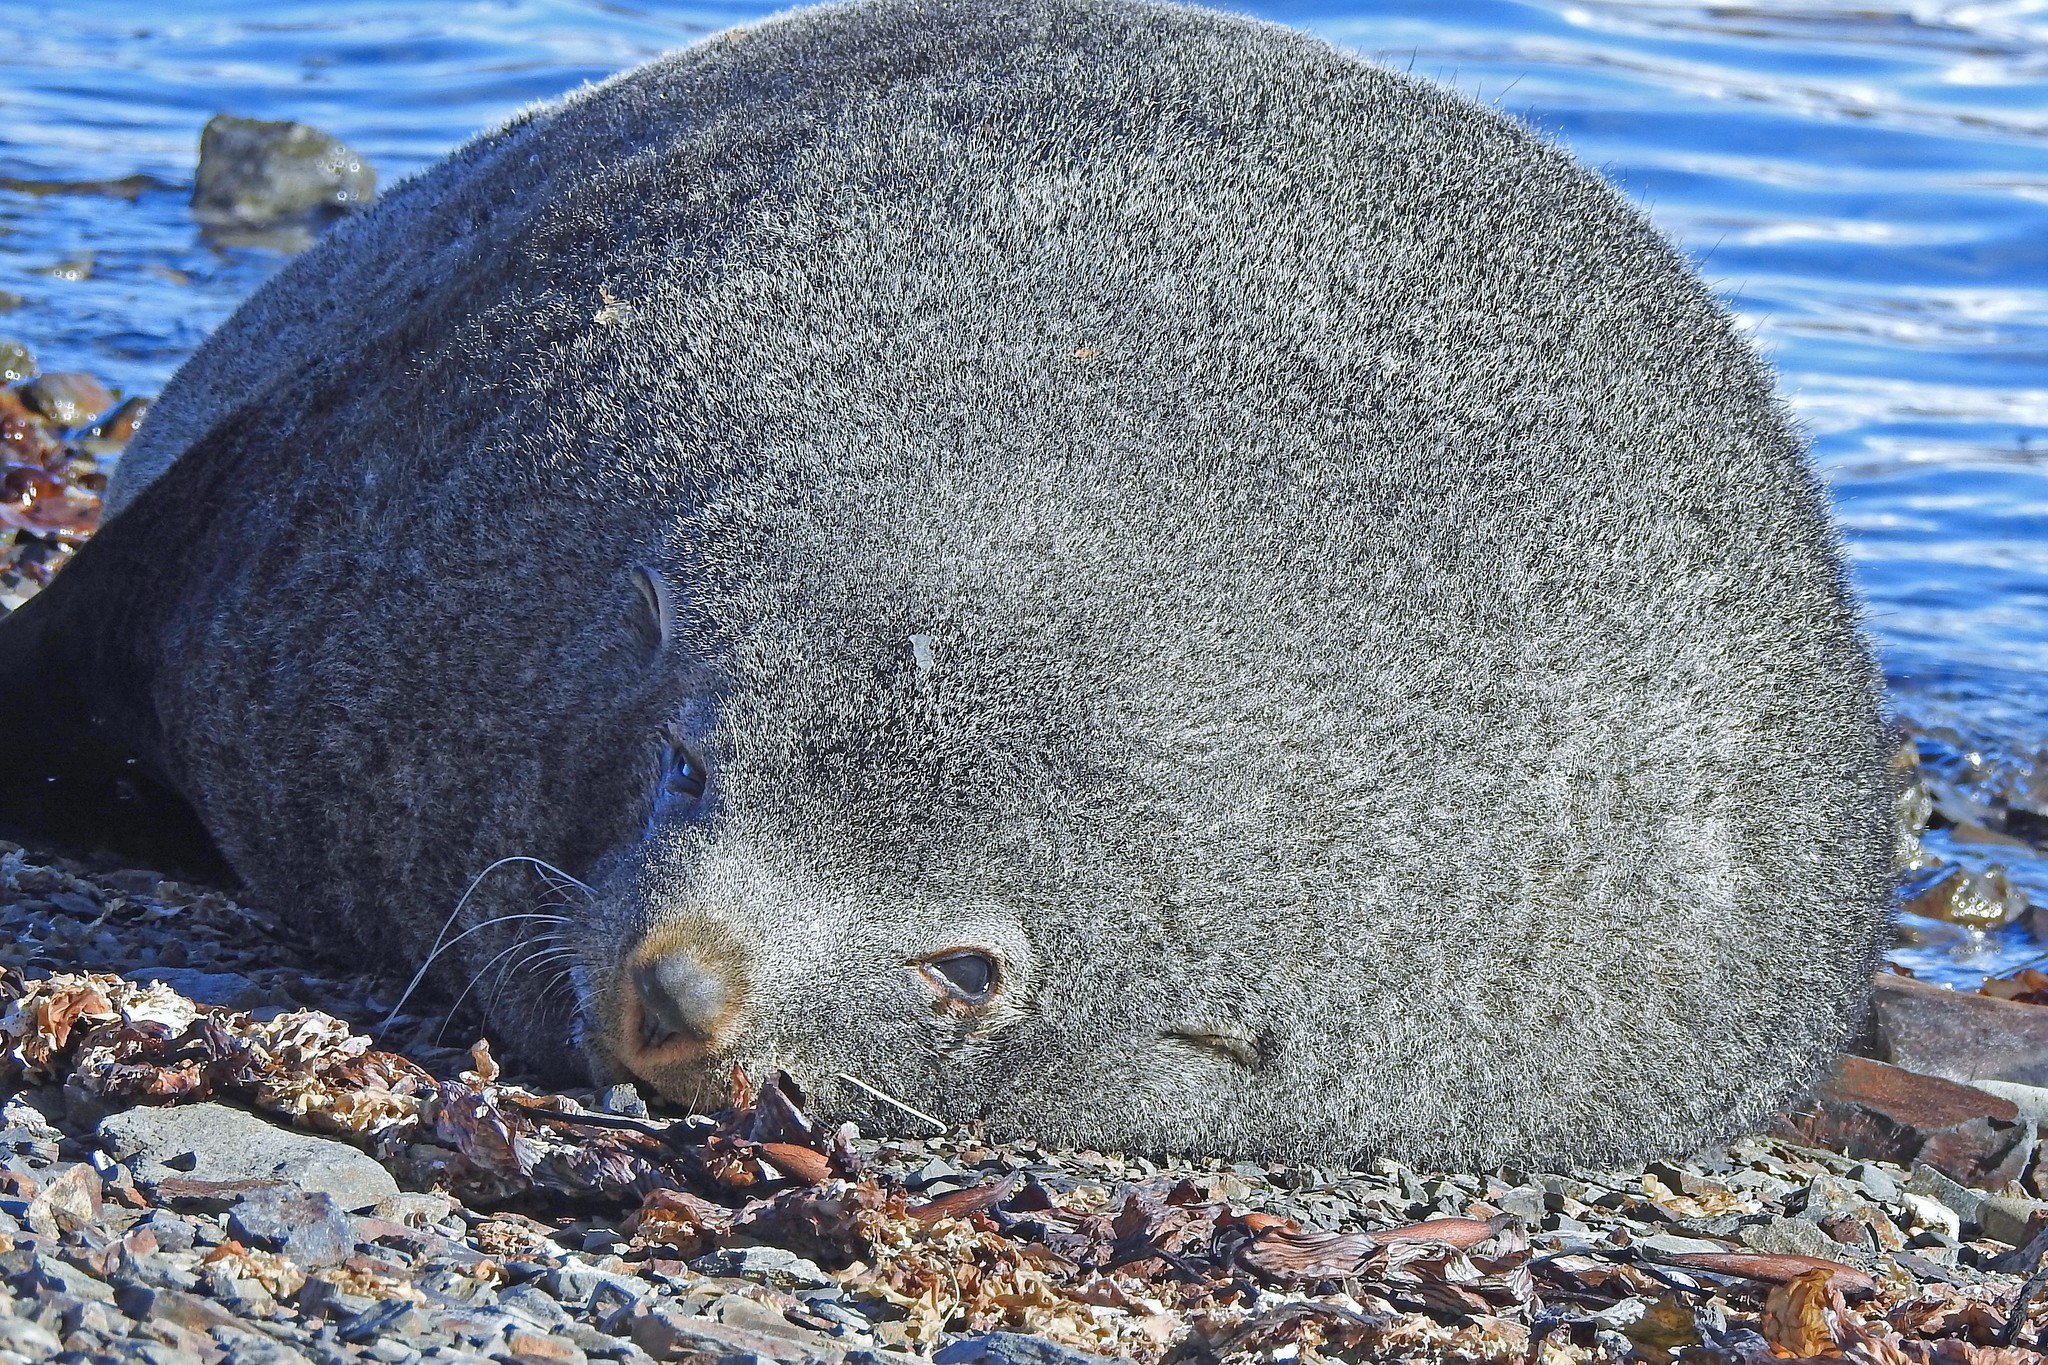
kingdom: Animalia
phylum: Chordata
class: Mammalia
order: Carnivora
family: Otariidae
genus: Arctocephalus
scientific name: Arctocephalus gazella
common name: Antarctic fur seal
